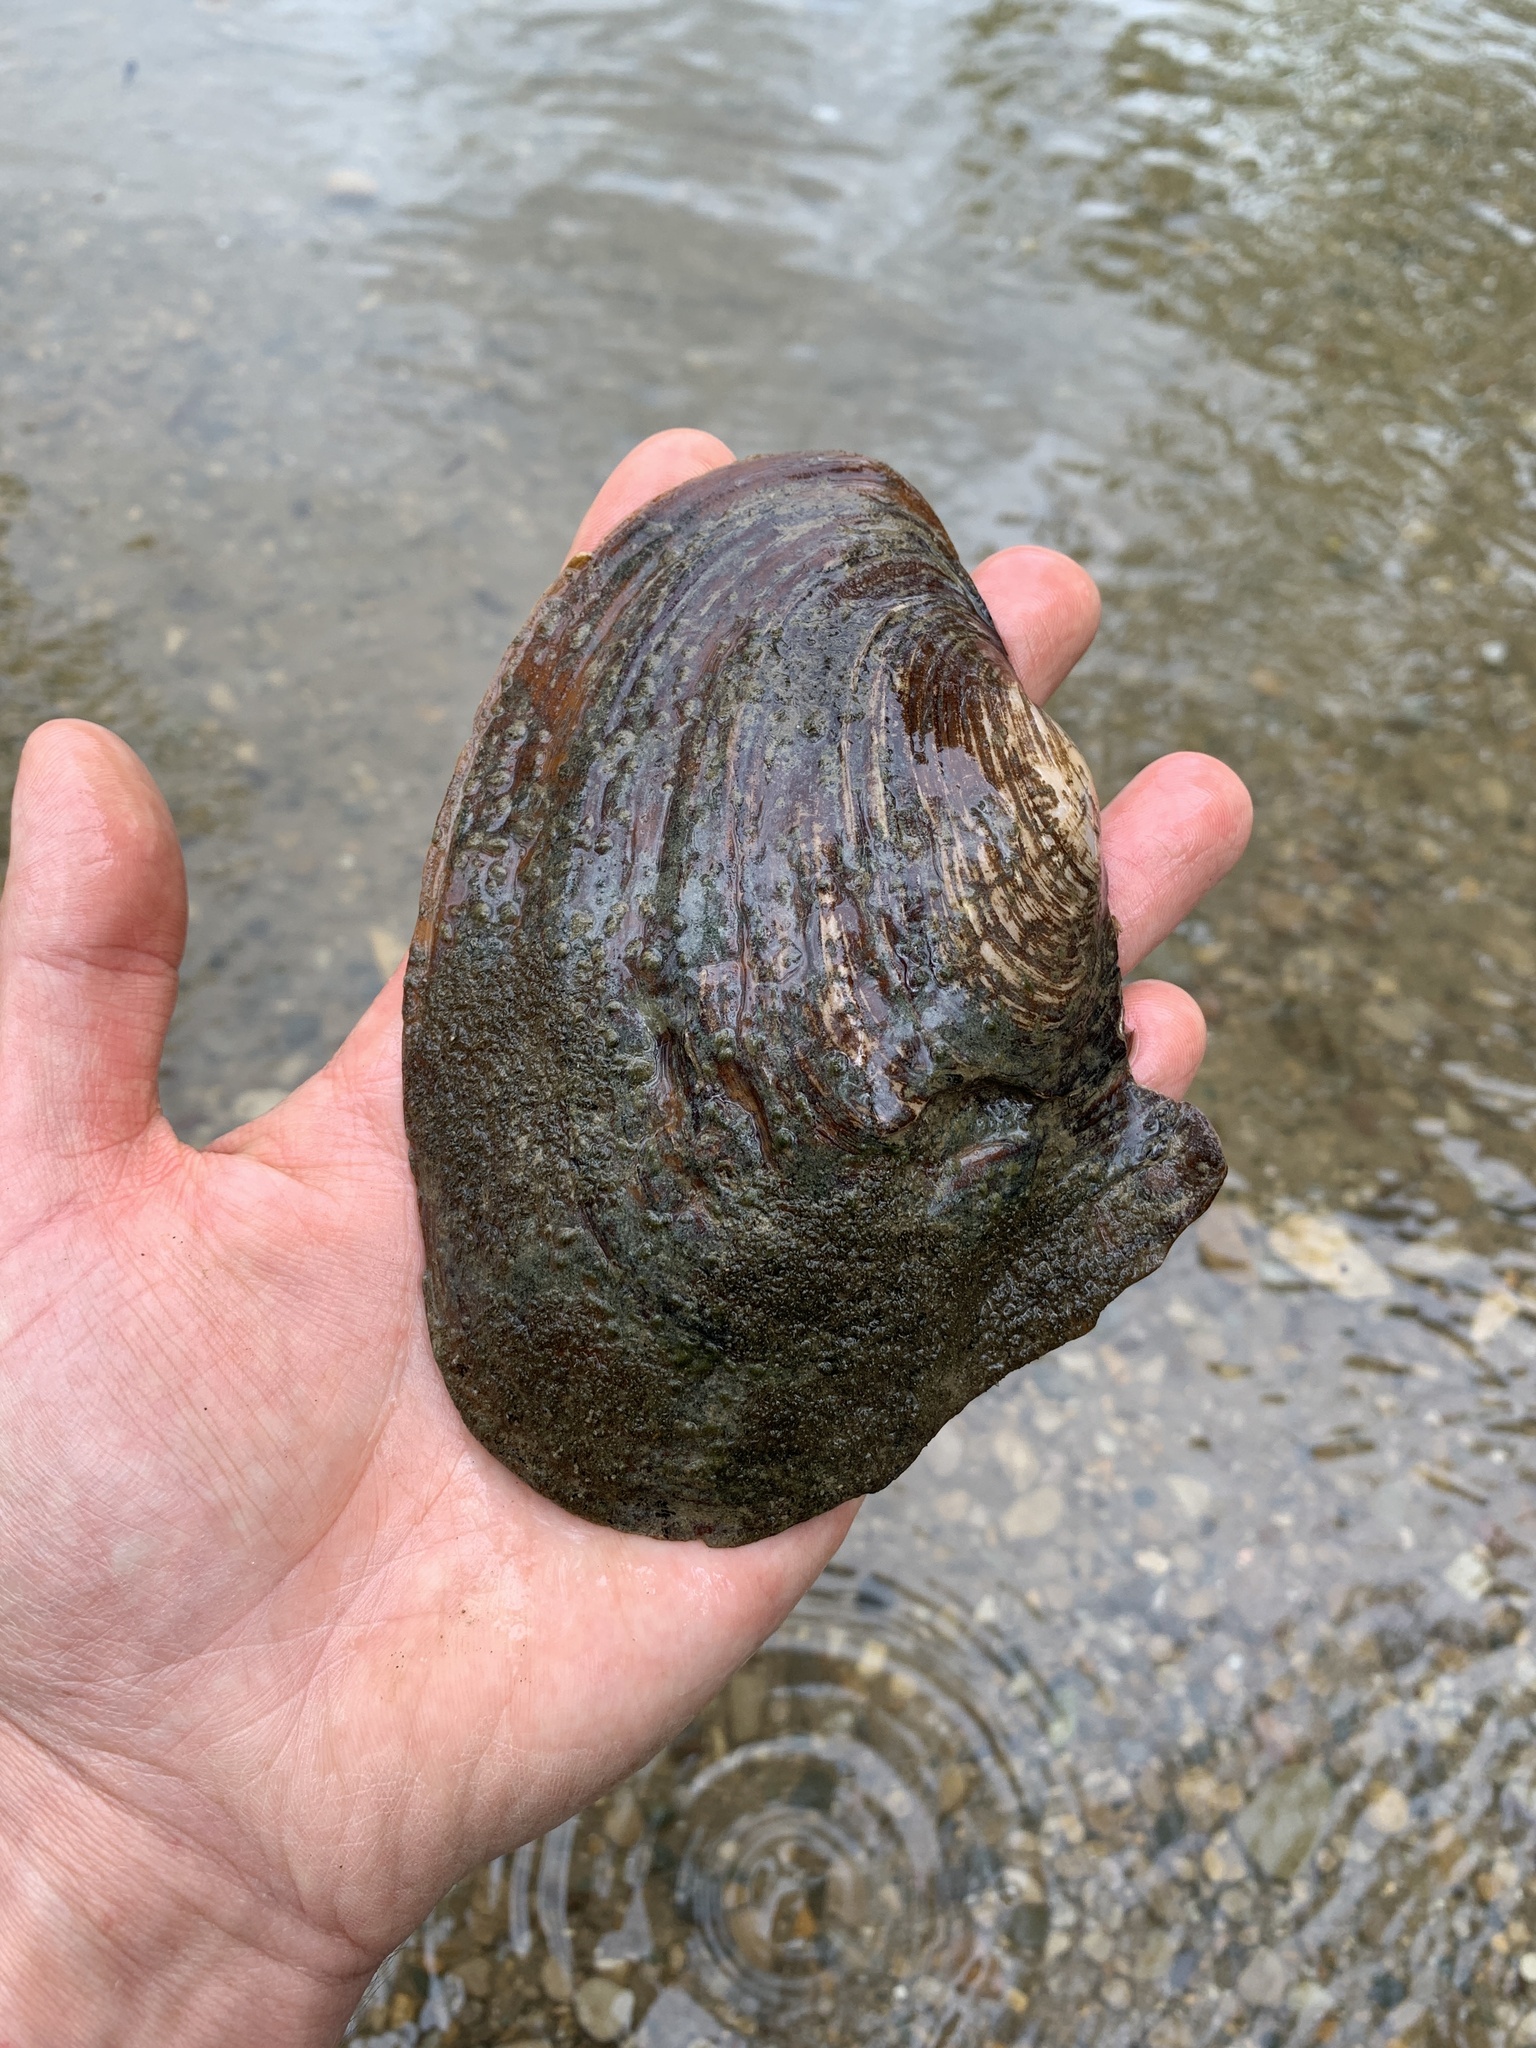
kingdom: Animalia
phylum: Mollusca
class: Bivalvia
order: Unionida
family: Unionidae
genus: Potamilus
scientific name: Potamilus alatus
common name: Pink heelsplitter
